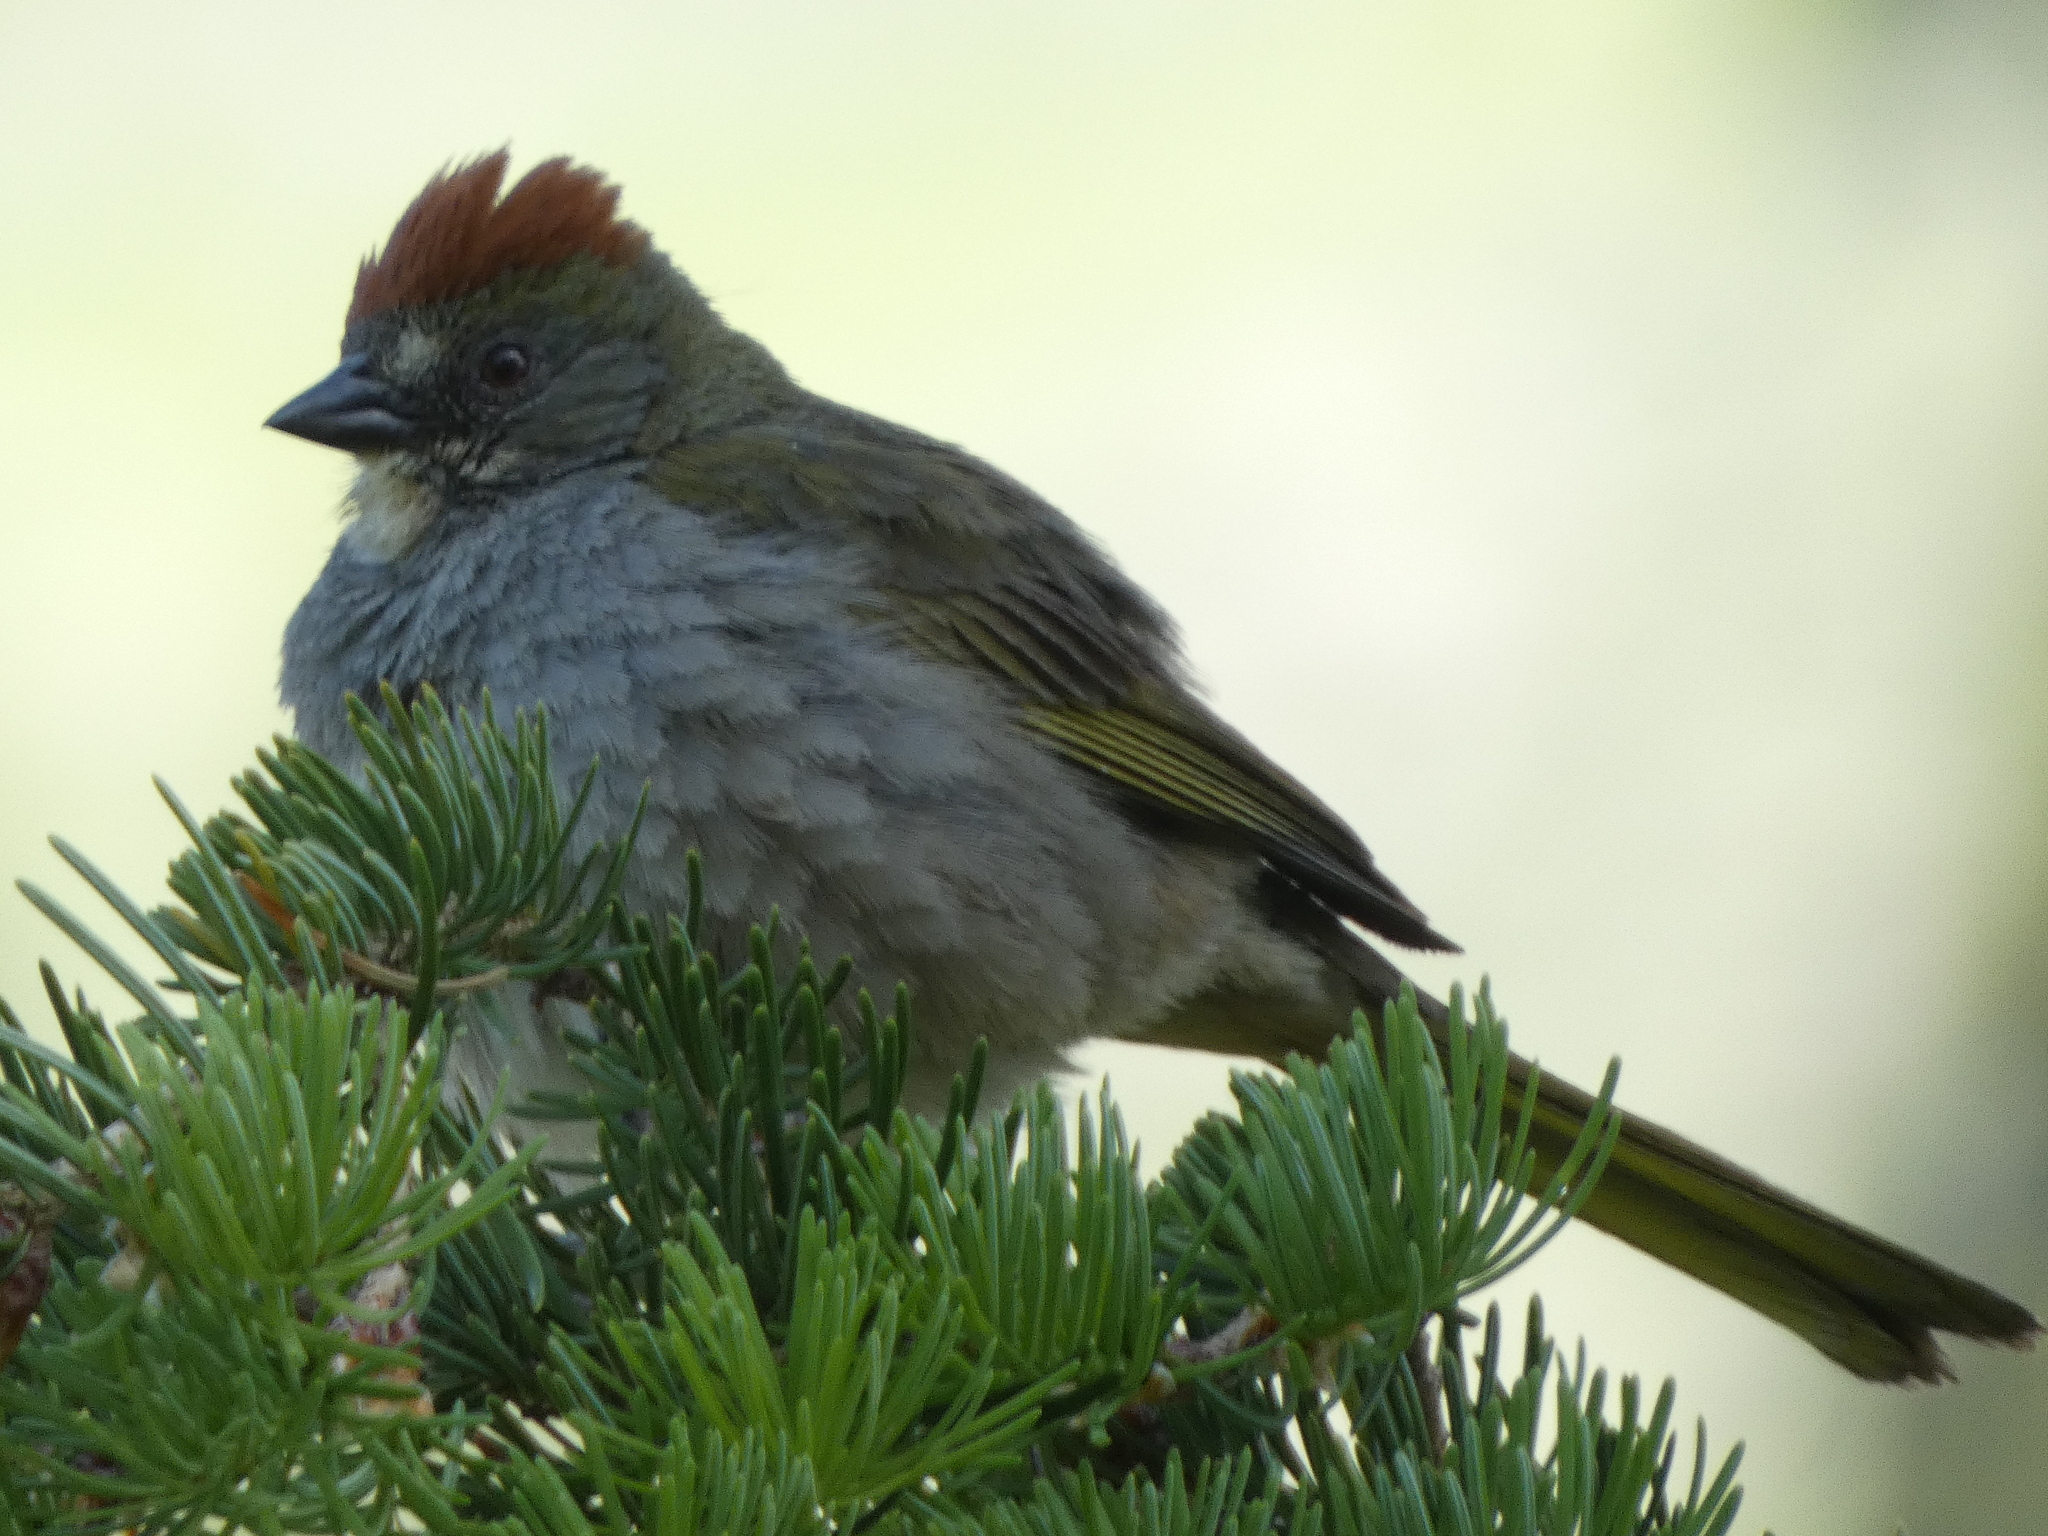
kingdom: Animalia
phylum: Chordata
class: Aves
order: Passeriformes
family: Passerellidae
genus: Pipilo
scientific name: Pipilo chlorurus
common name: Green-tailed towhee
